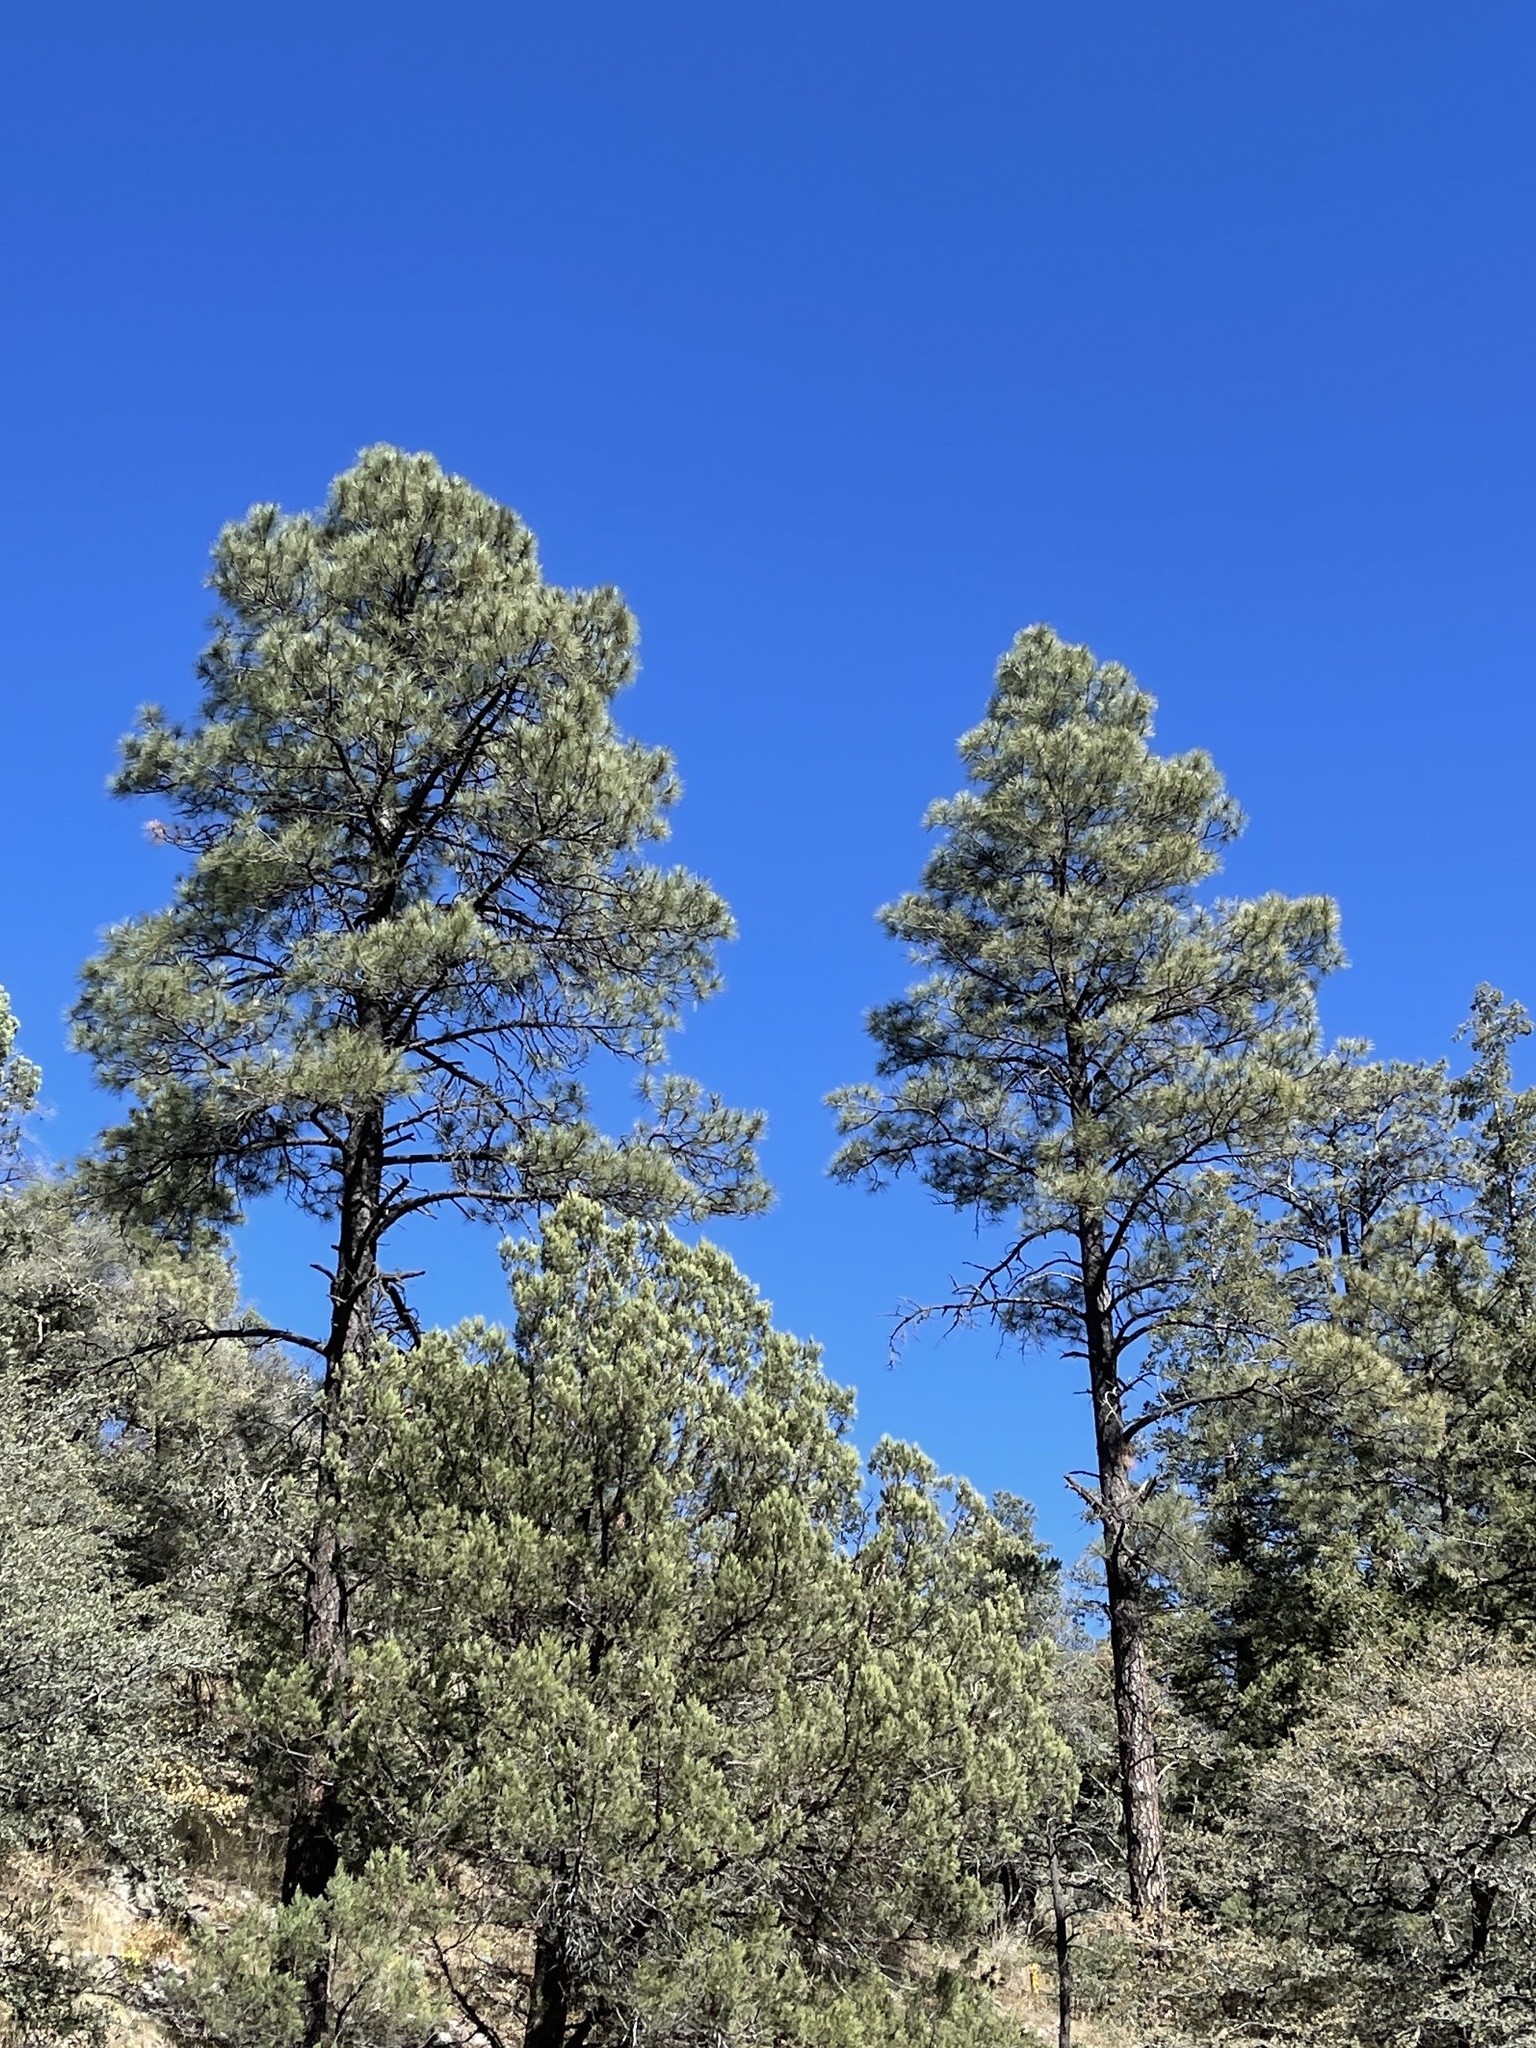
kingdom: Plantae
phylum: Tracheophyta
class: Pinopsida
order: Pinales
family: Pinaceae
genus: Pinus
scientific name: Pinus ponderosa
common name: Western yellow-pine
